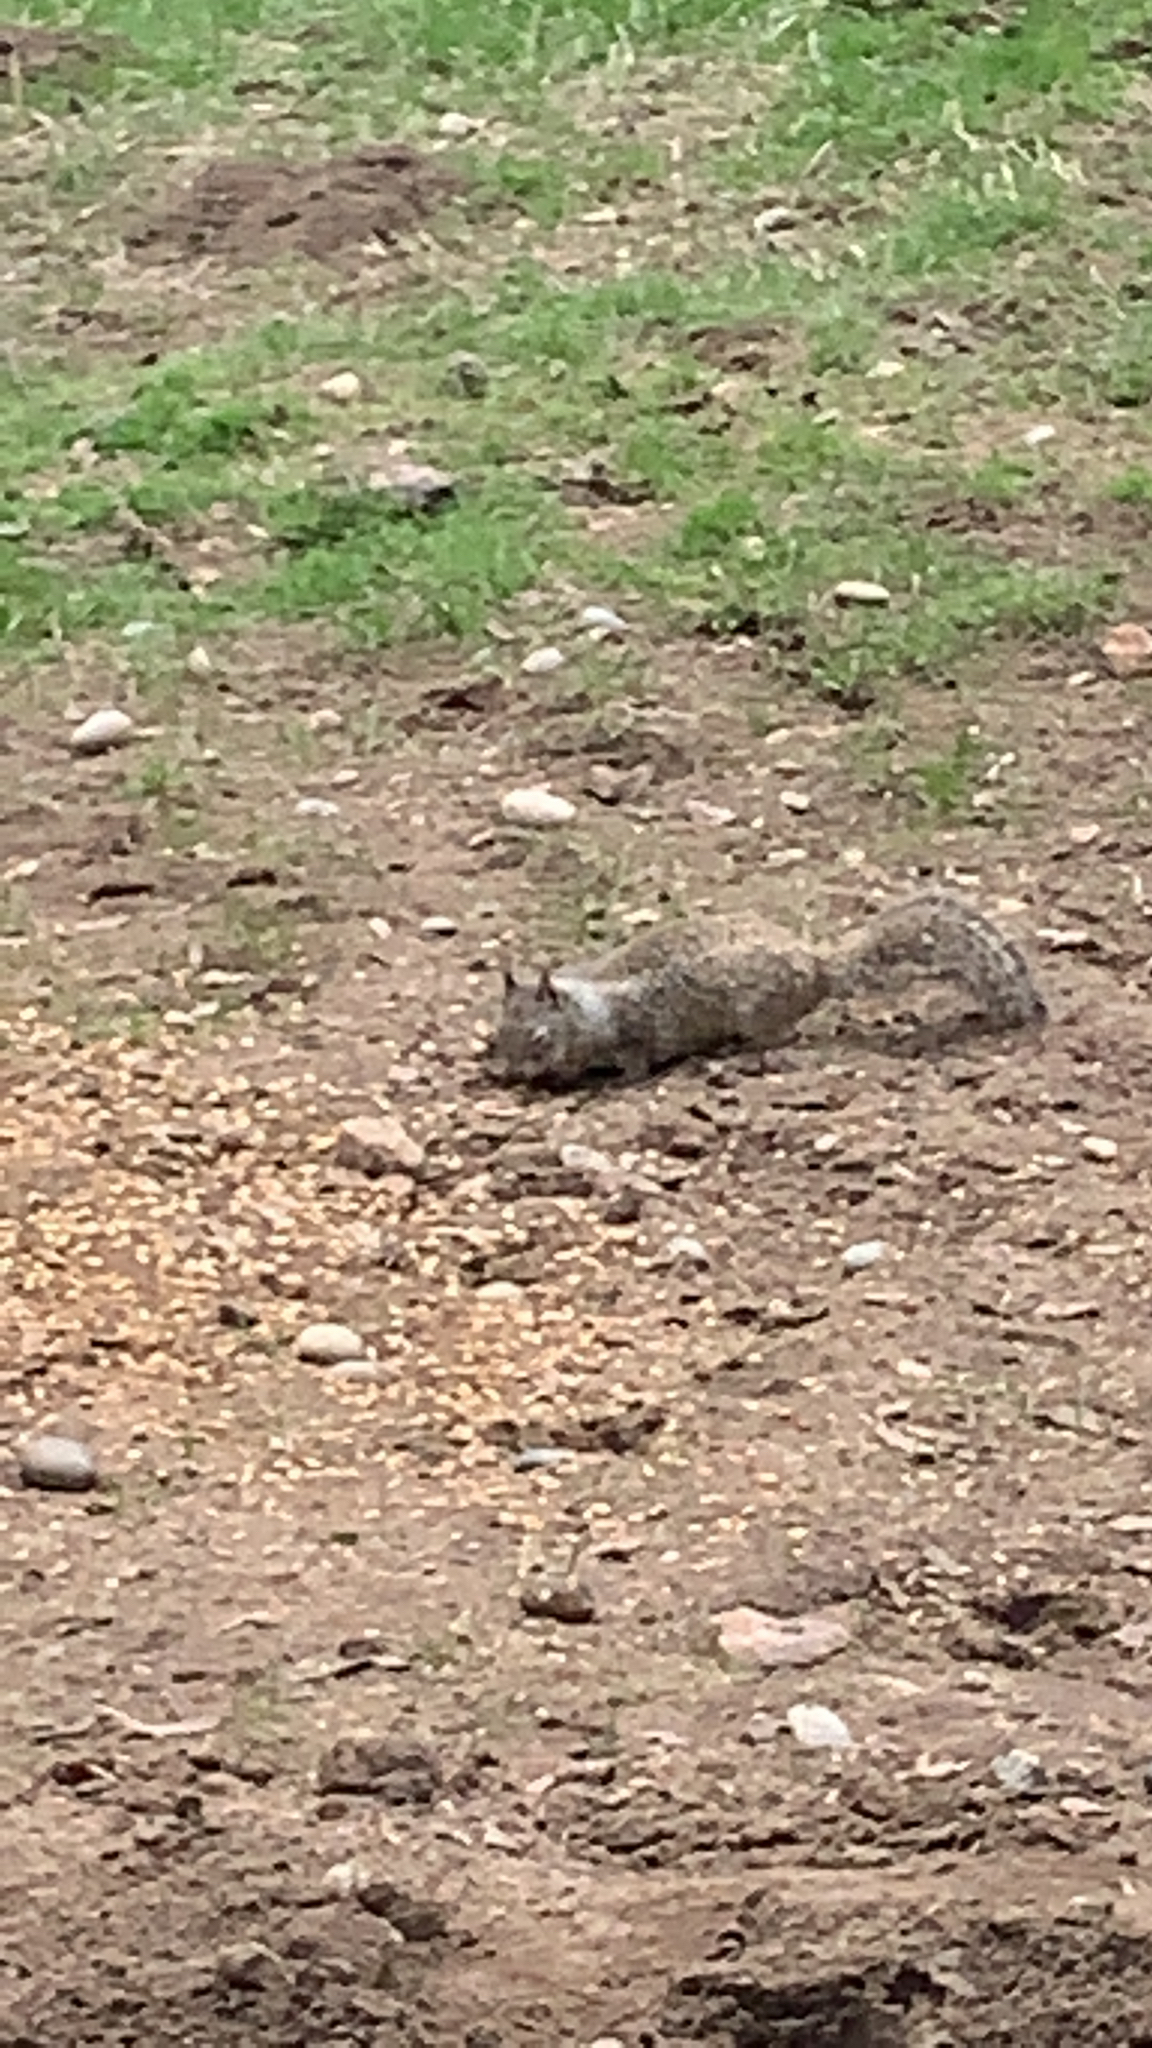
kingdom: Animalia
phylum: Chordata
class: Mammalia
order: Rodentia
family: Sciuridae
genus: Otospermophilus
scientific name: Otospermophilus beecheyi
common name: California ground squirrel
